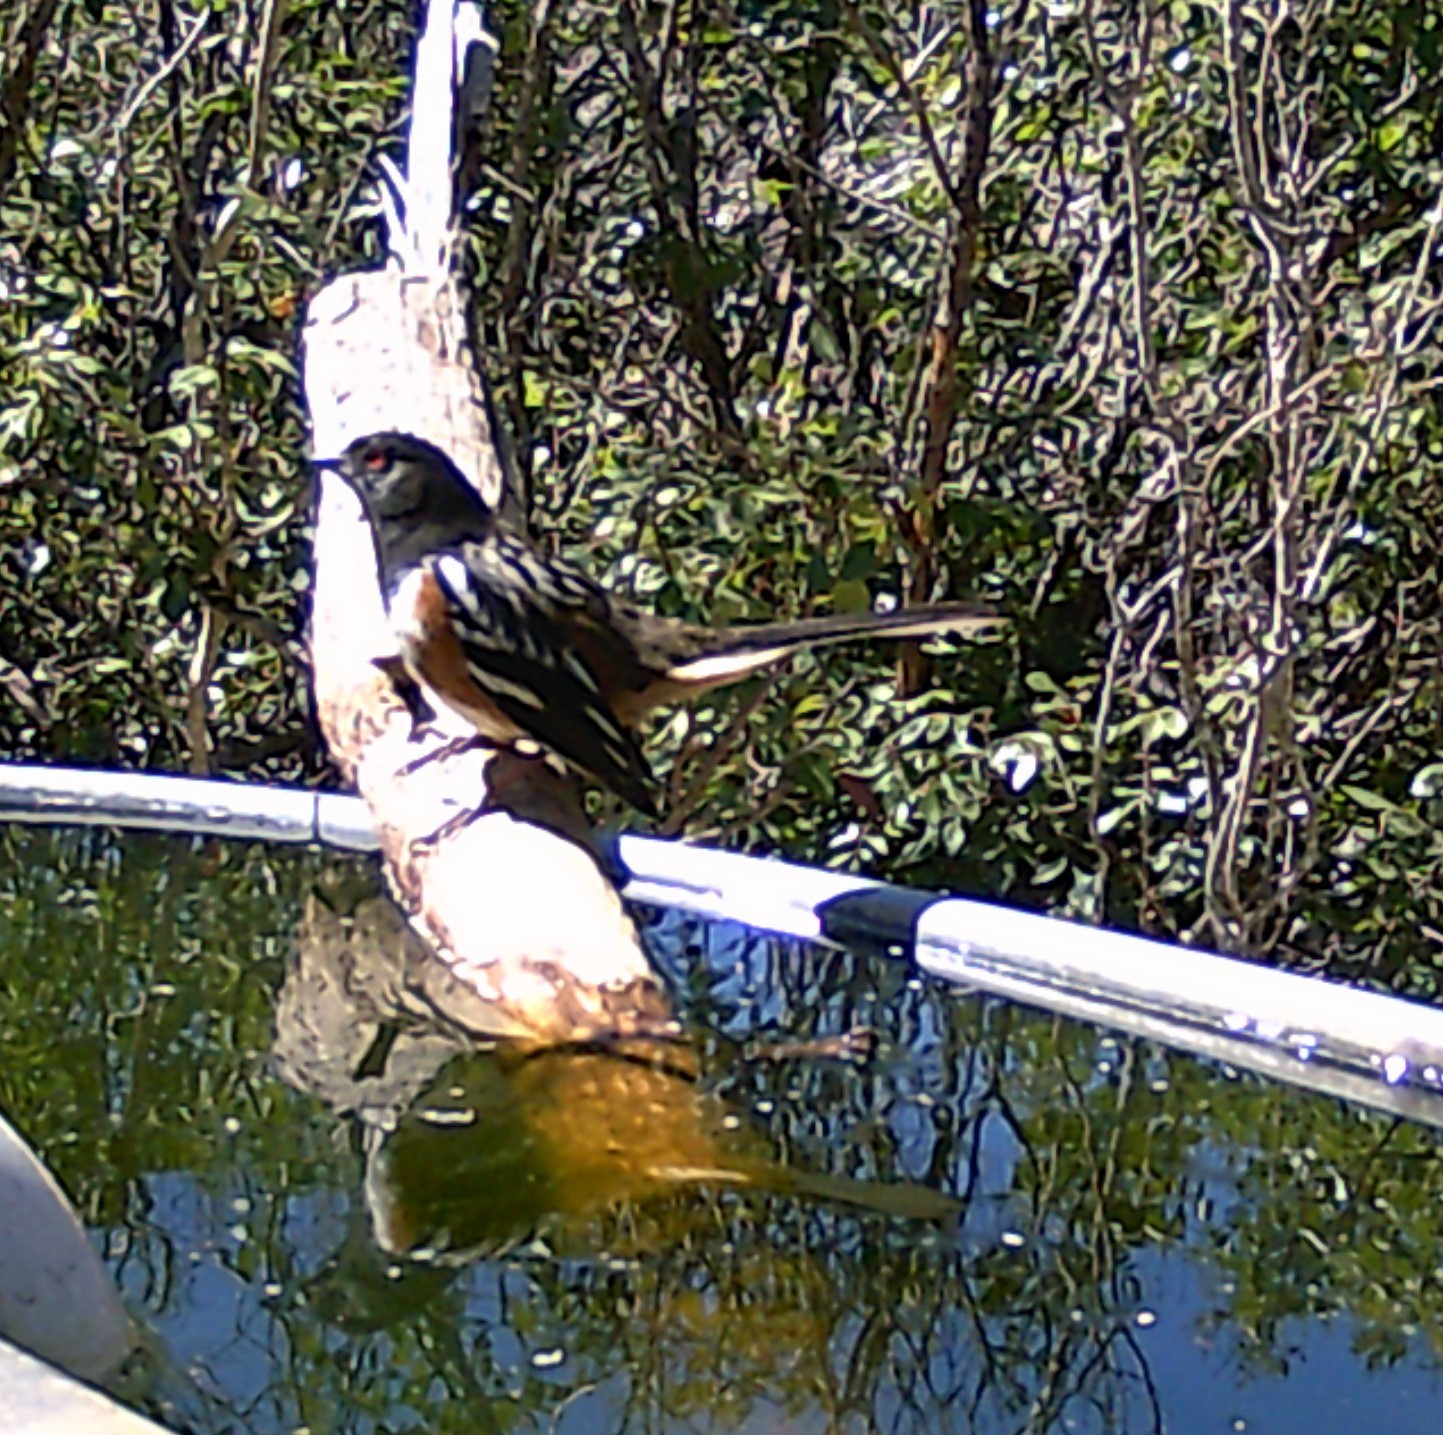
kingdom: Animalia
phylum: Chordata
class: Aves
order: Passeriformes
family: Passerellidae
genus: Pipilo
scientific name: Pipilo maculatus
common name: Spotted towhee
